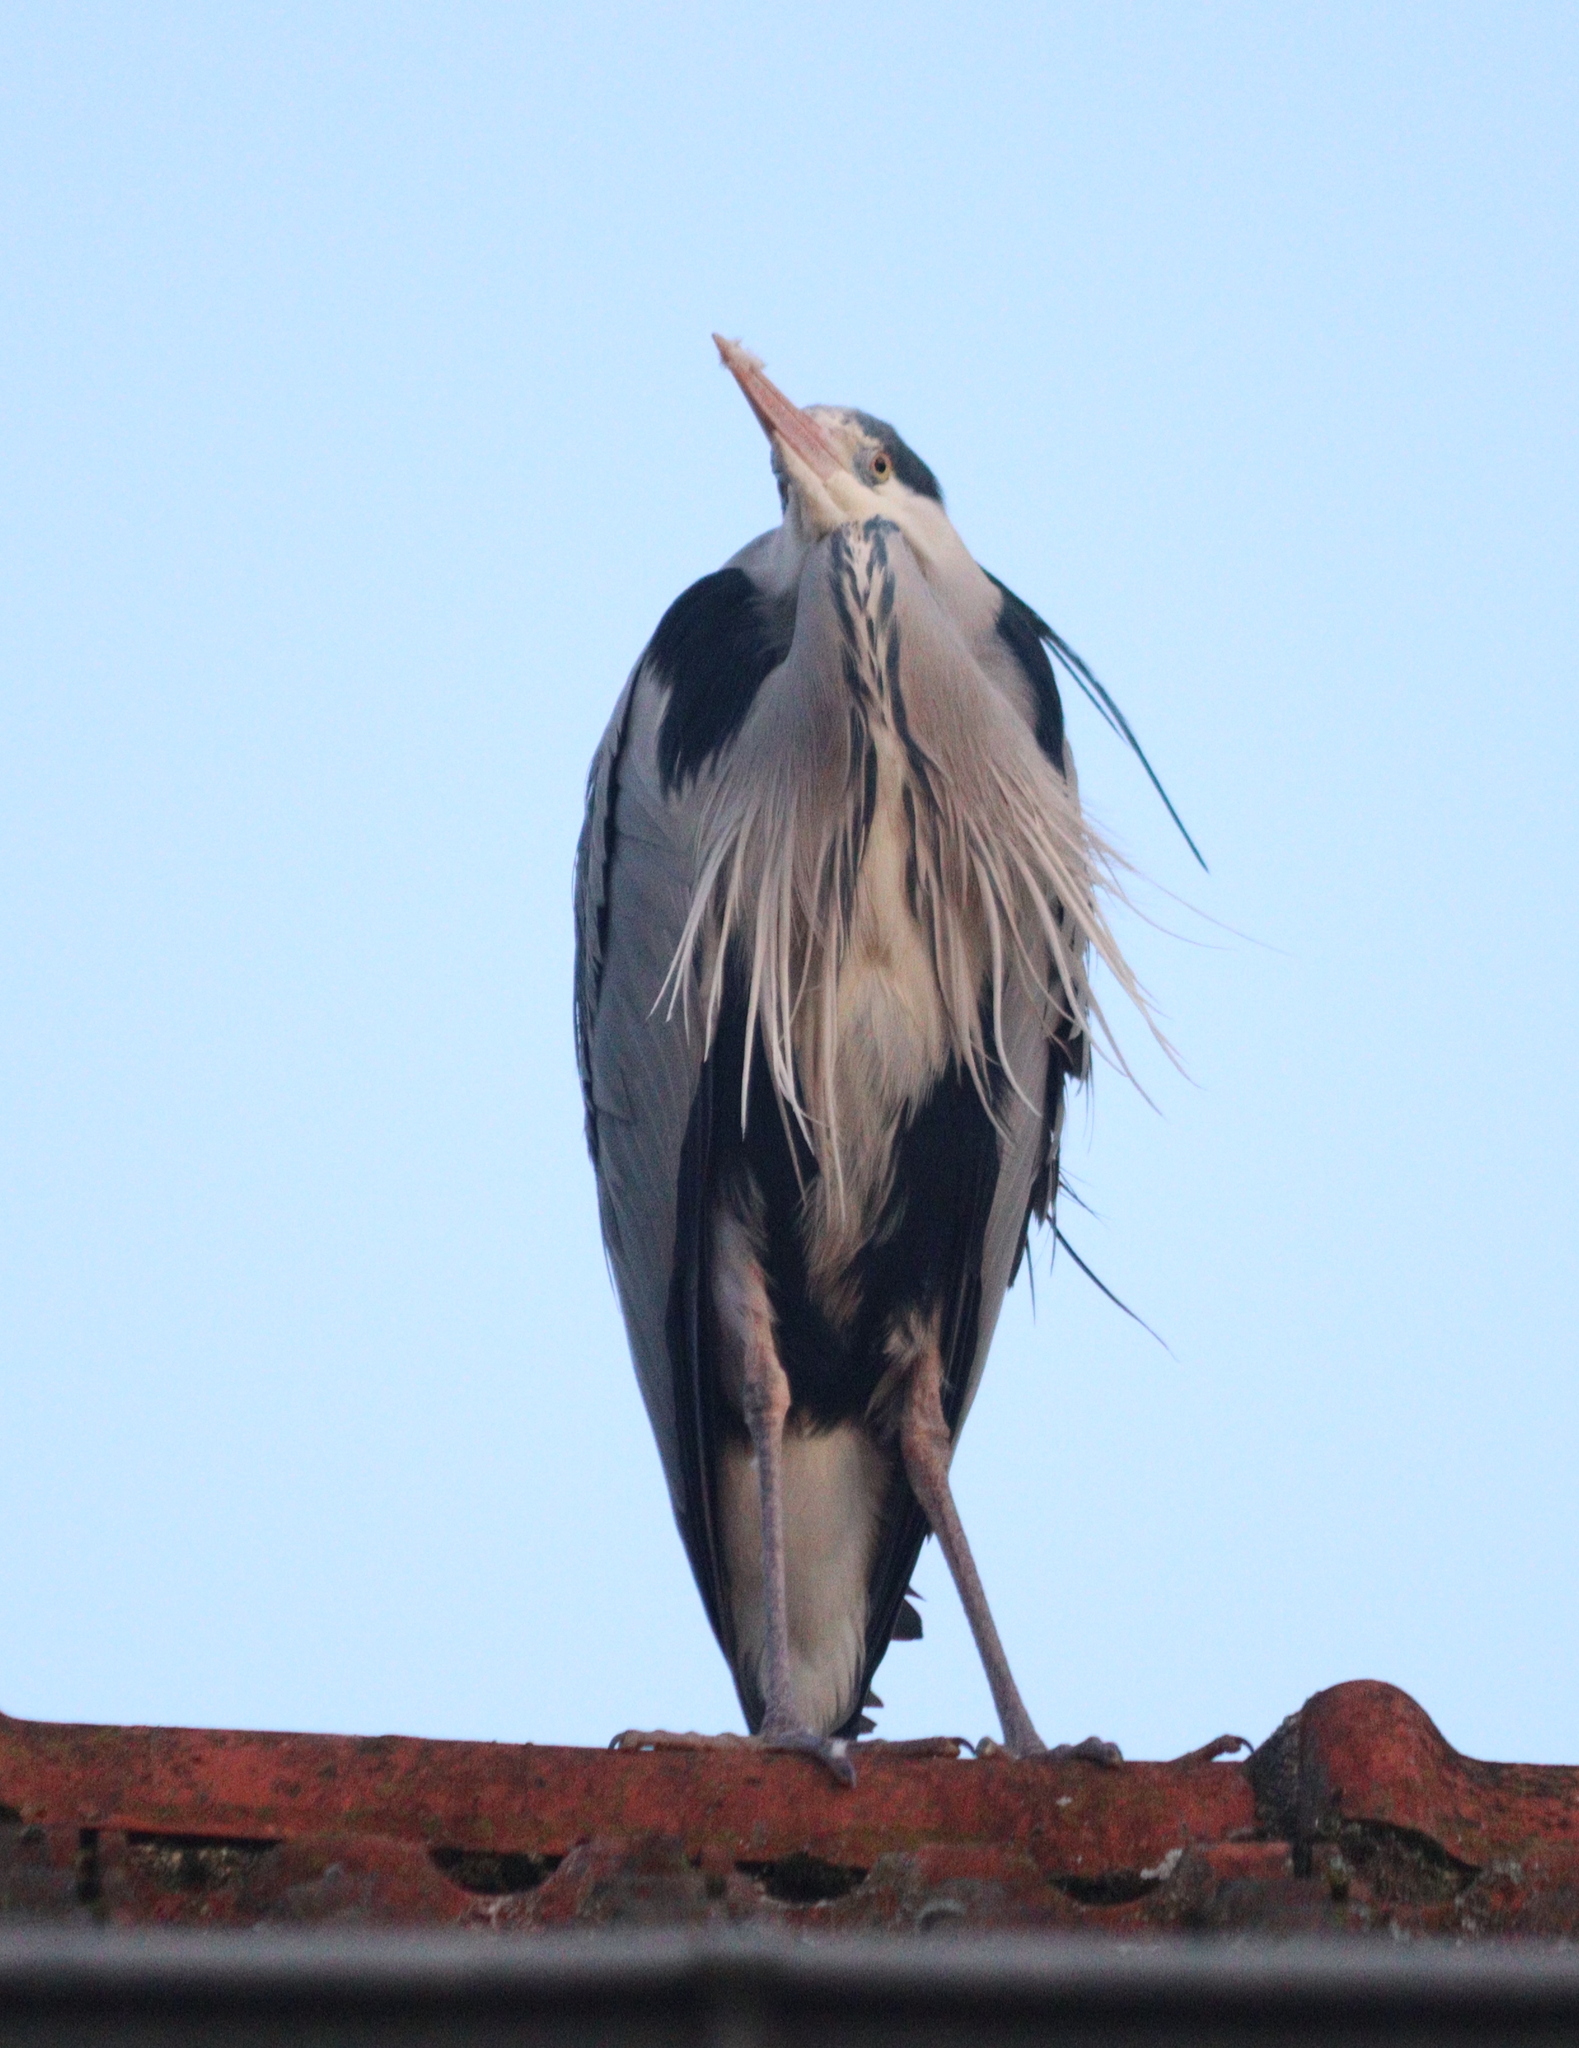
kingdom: Animalia
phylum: Chordata
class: Aves
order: Pelecaniformes
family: Ardeidae
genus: Ardea
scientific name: Ardea cinerea
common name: Grey heron
